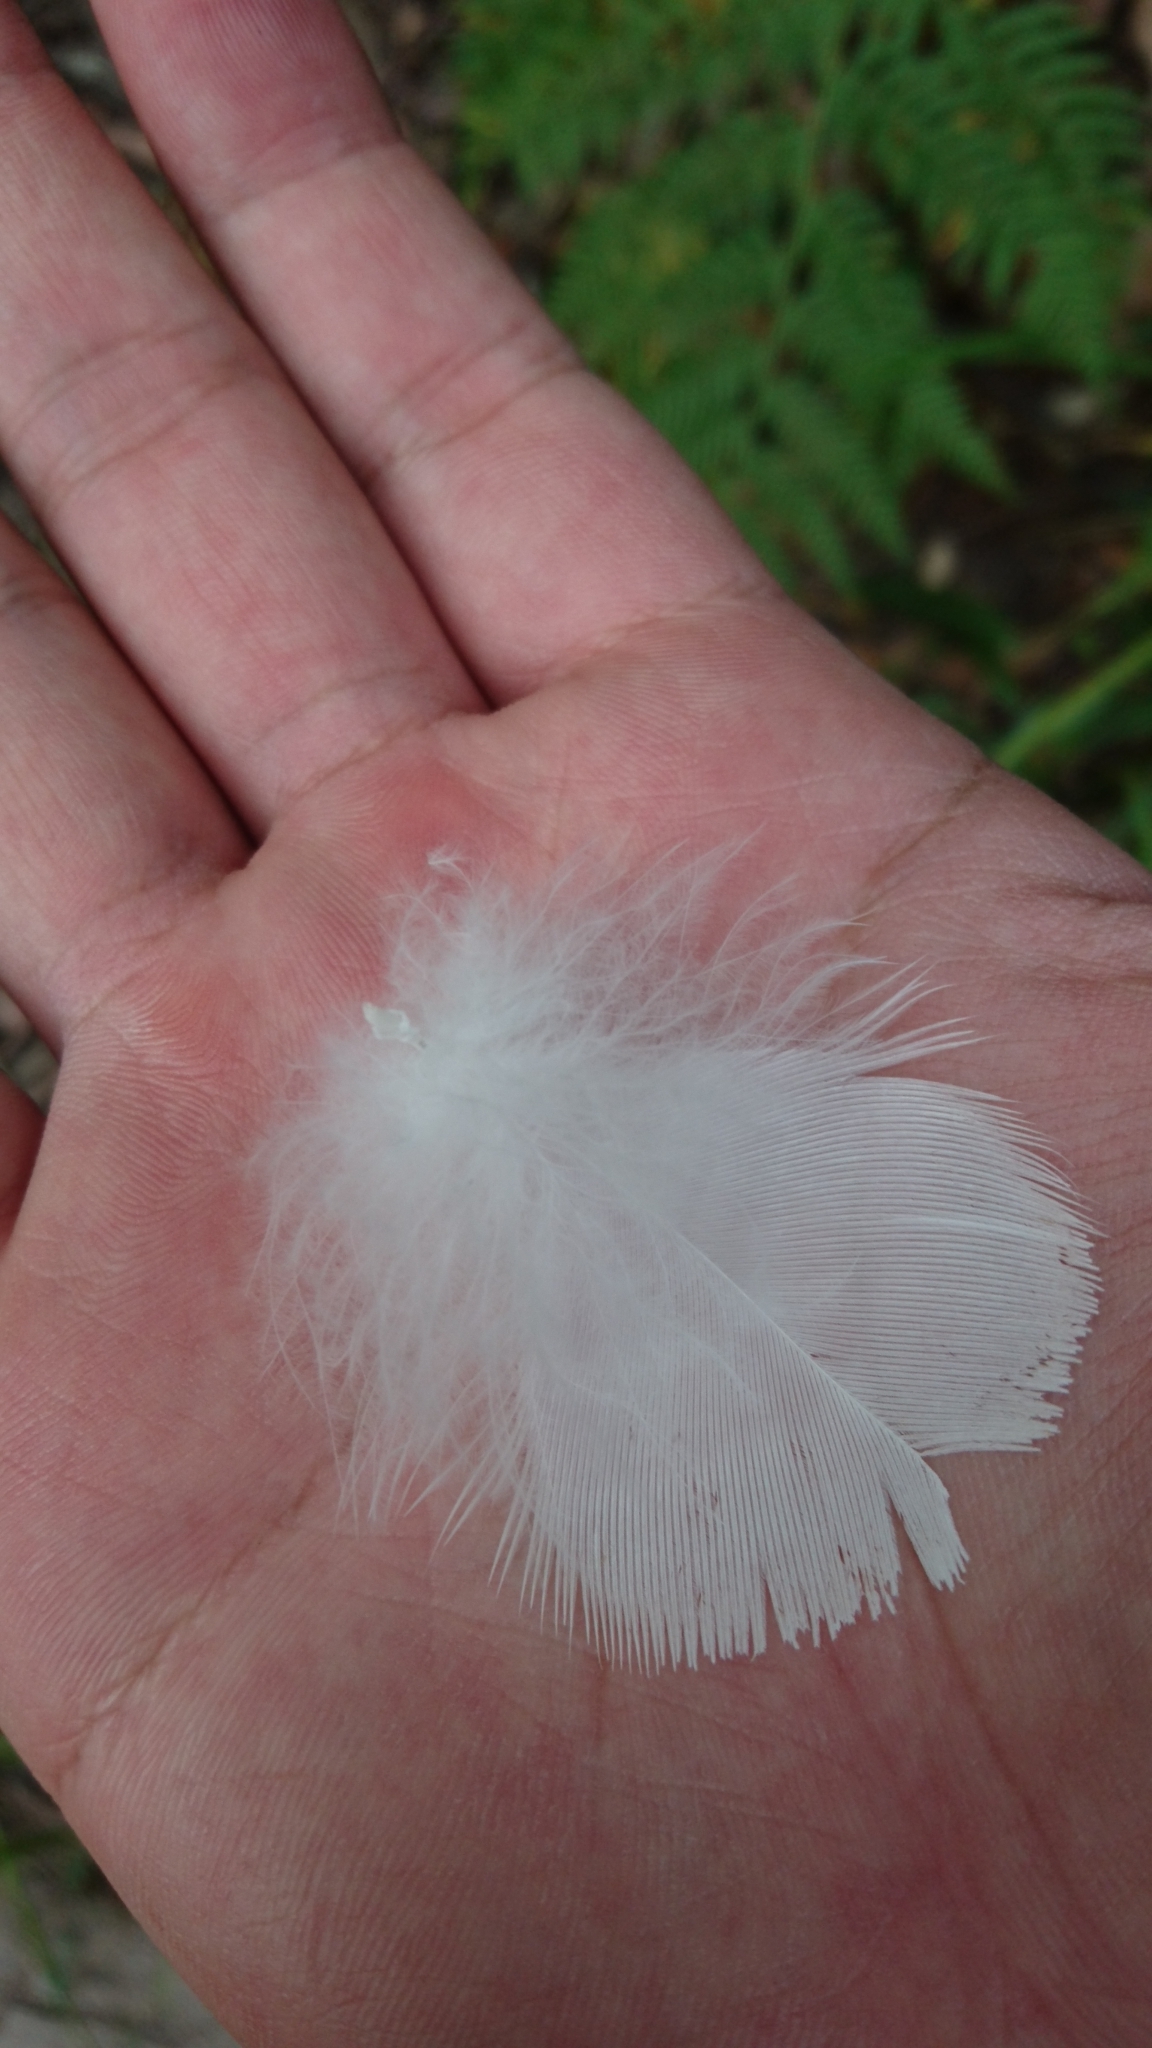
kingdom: Animalia
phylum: Chordata
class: Aves
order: Psittaciformes
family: Psittacidae
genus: Cacatua
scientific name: Cacatua galerita
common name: Sulphur-crested cockatoo
